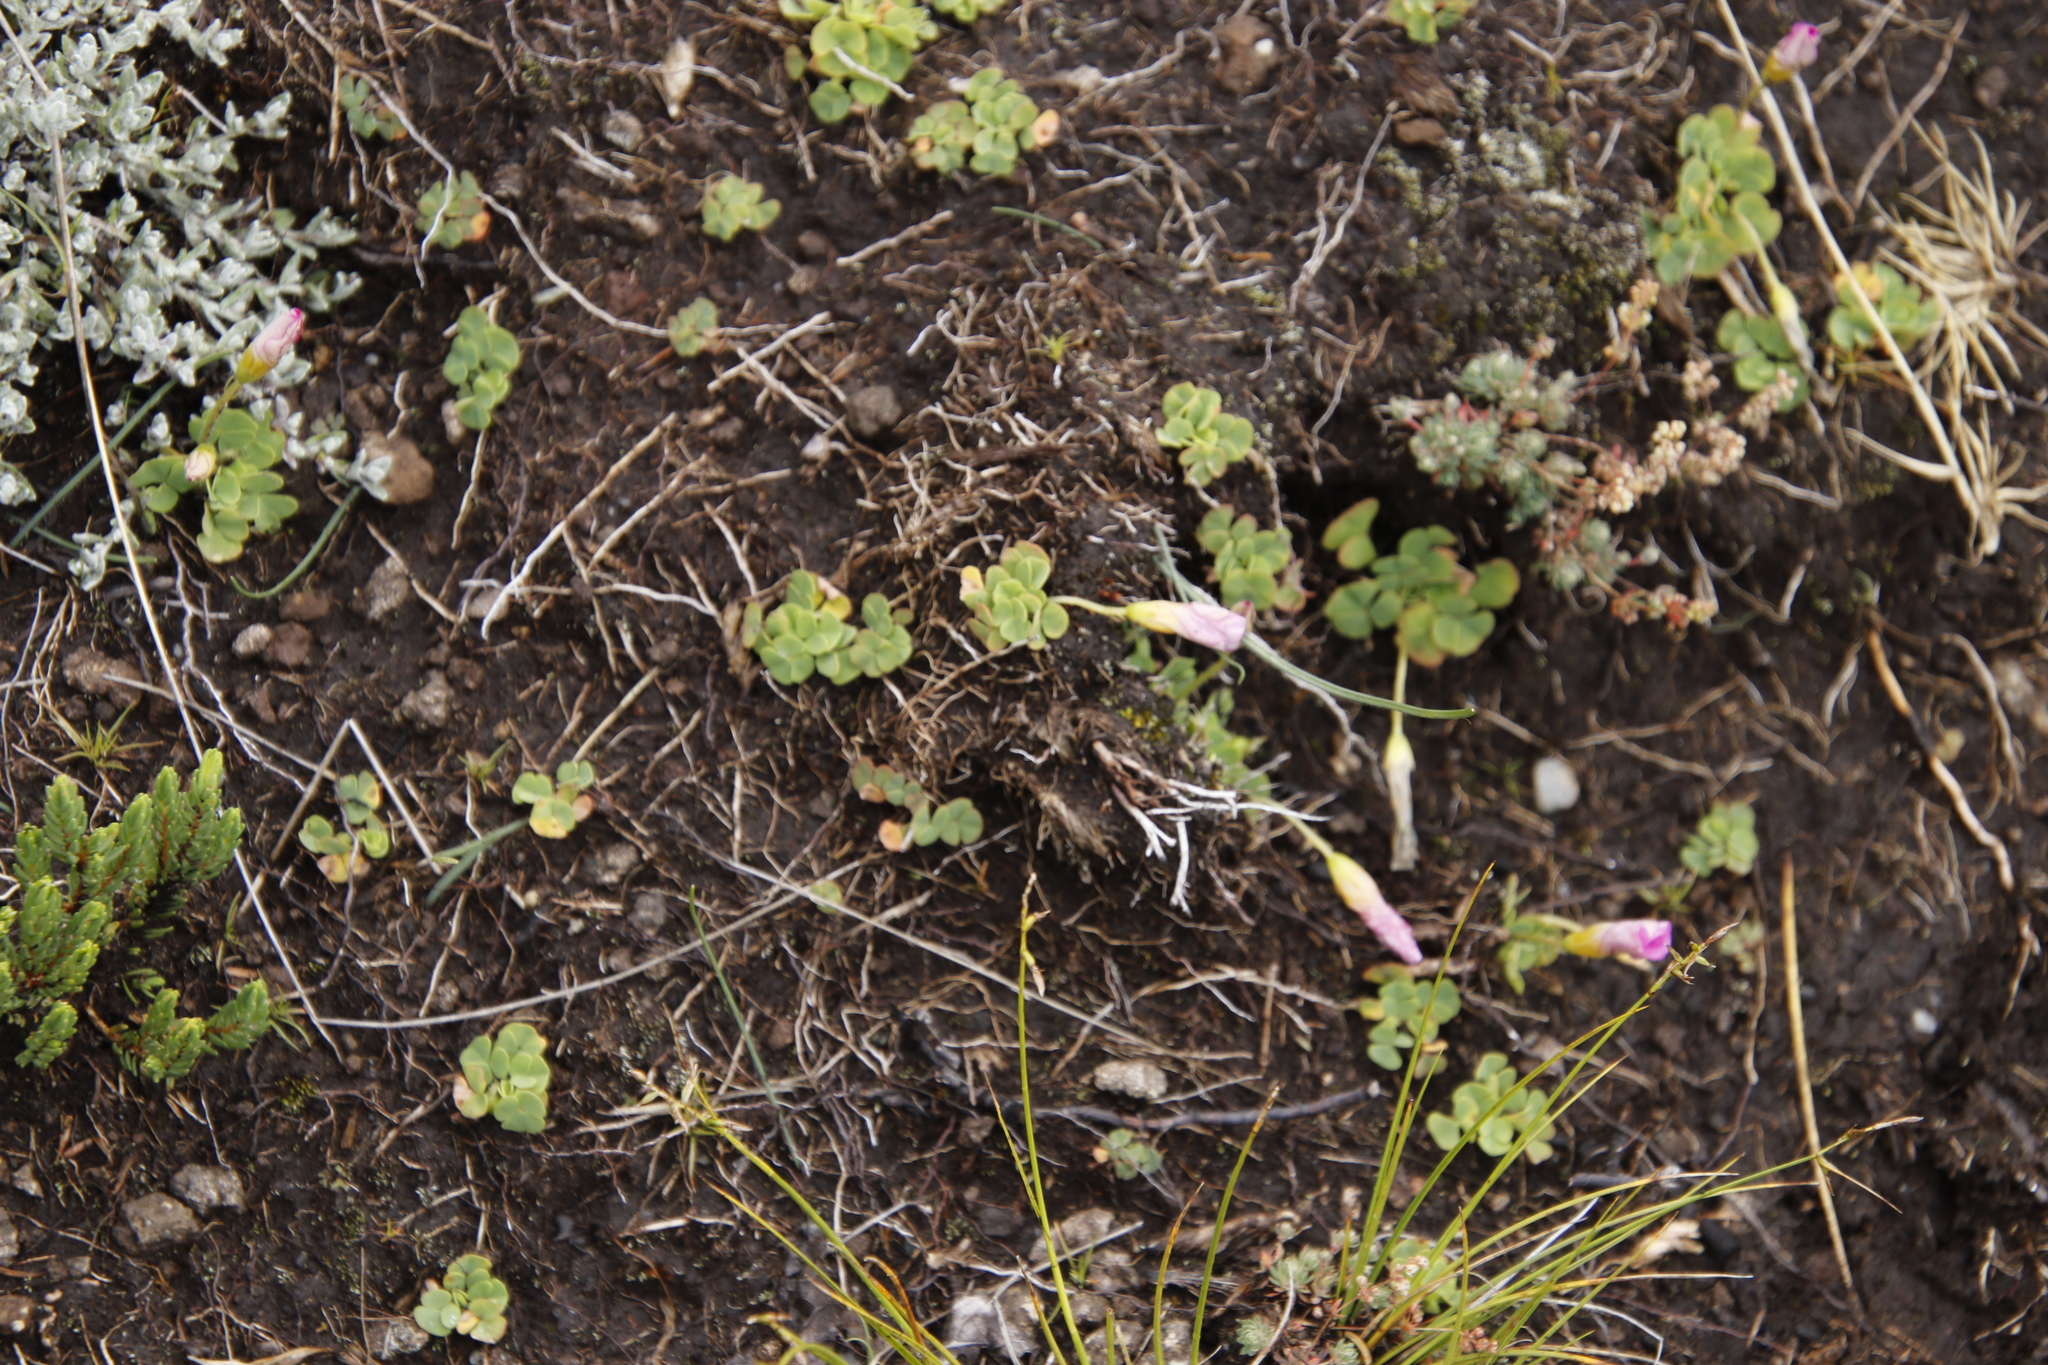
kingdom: Plantae
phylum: Tracheophyta
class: Magnoliopsida
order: Oxalidales
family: Oxalidaceae
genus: Oxalis
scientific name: Oxalis obliquifolia
